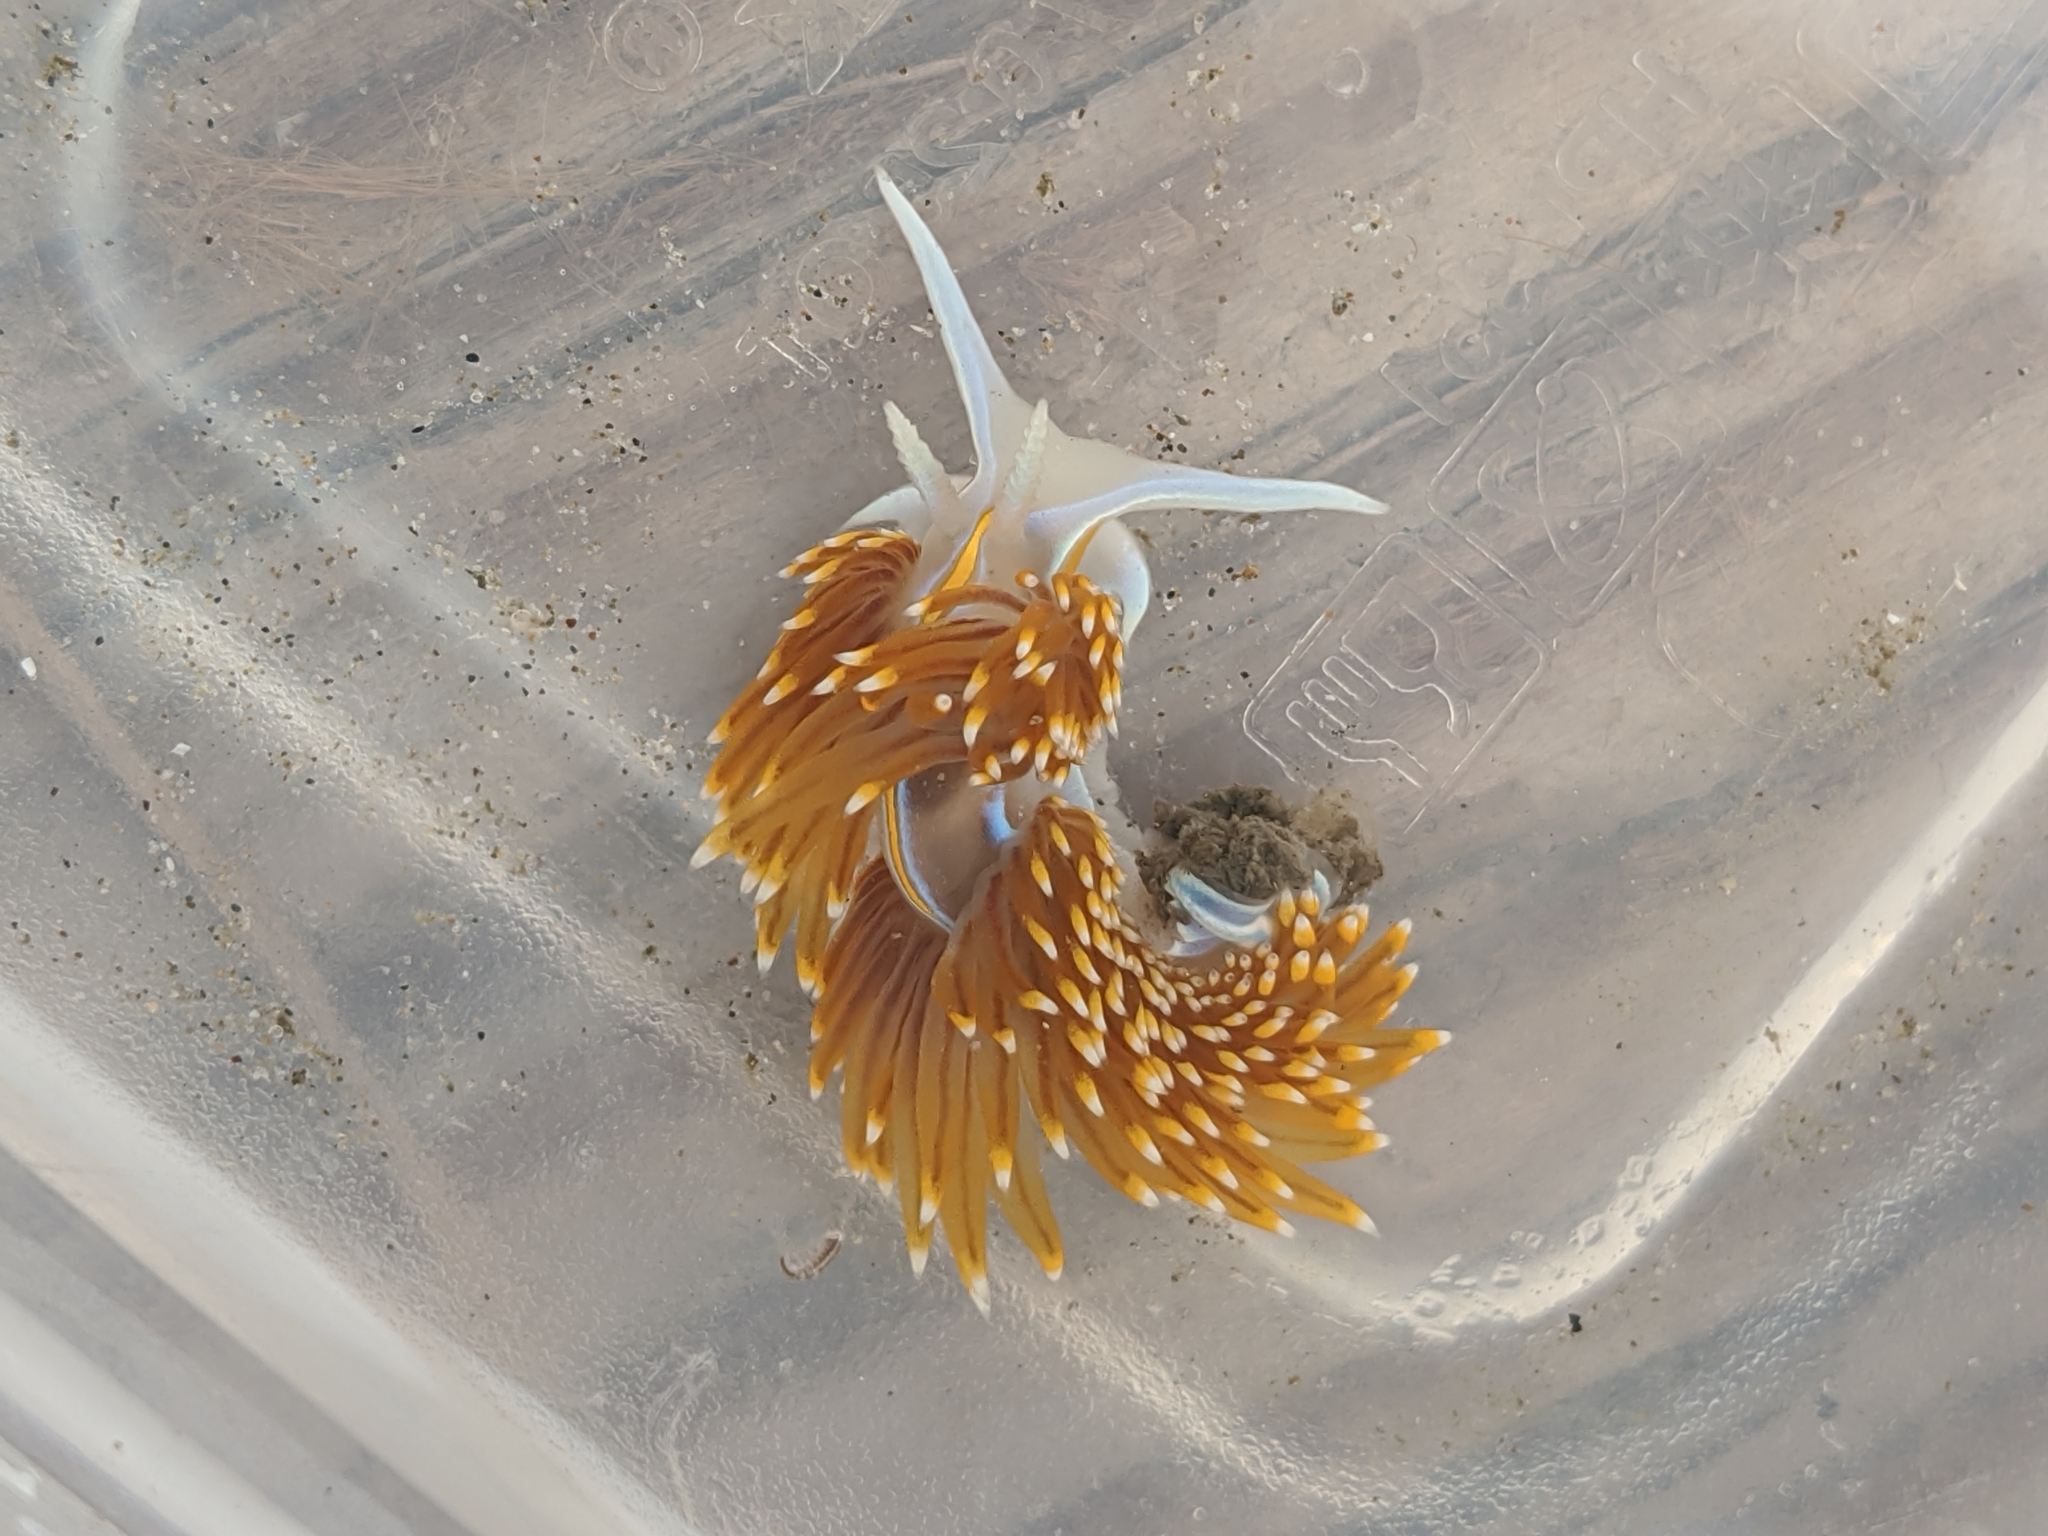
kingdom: Animalia
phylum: Mollusca
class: Gastropoda
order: Nudibranchia
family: Myrrhinidae
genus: Hermissenda
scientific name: Hermissenda opalescens
